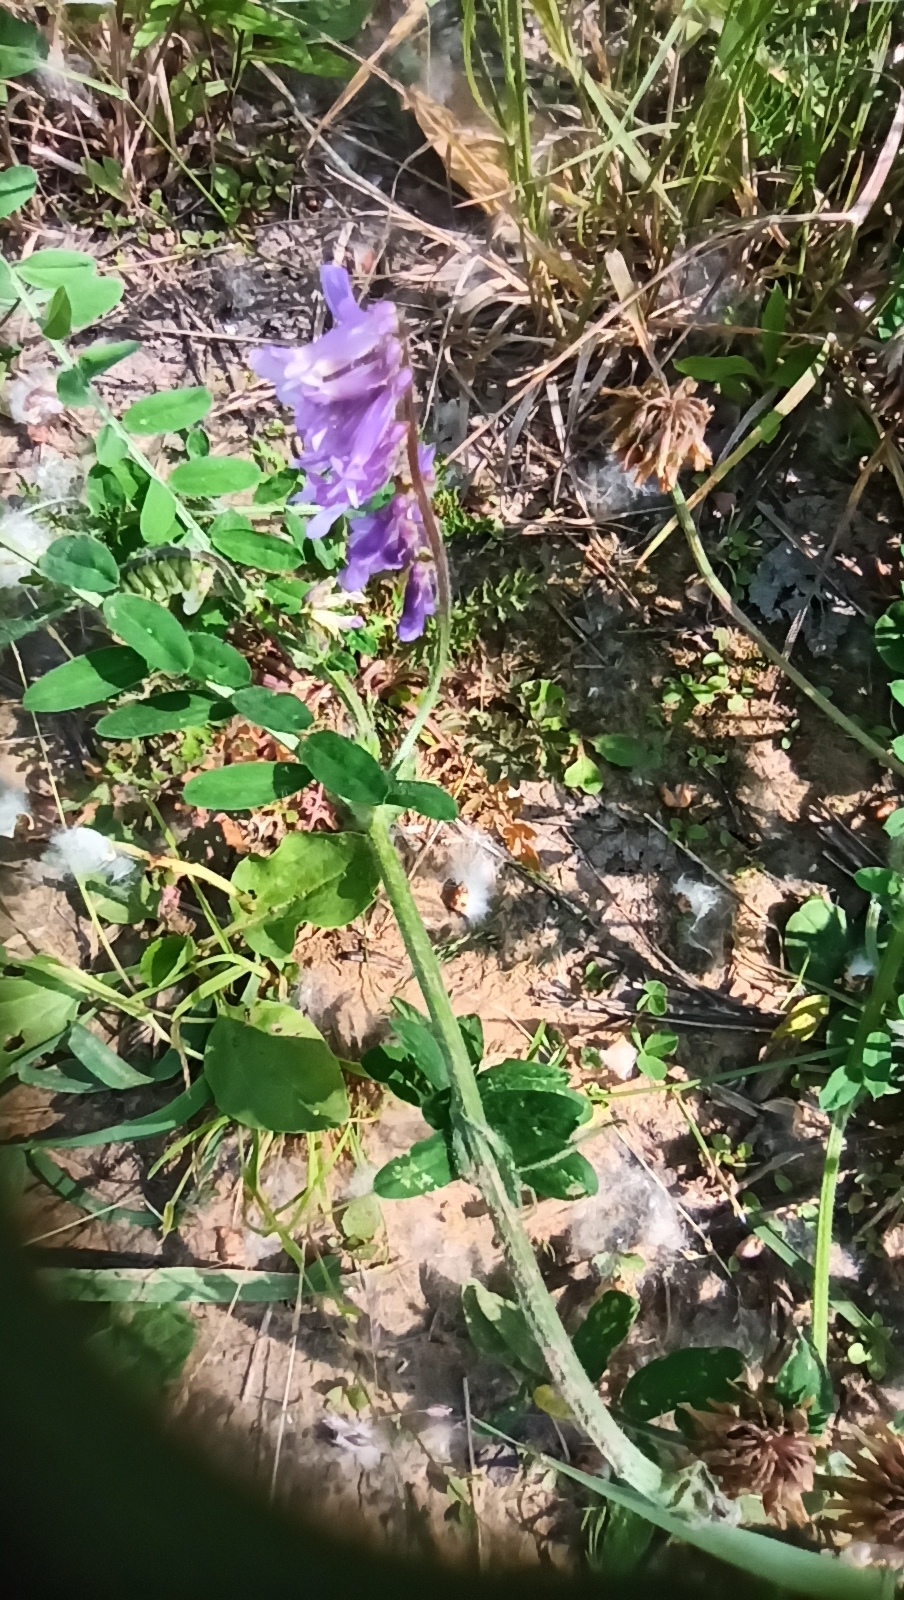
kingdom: Plantae
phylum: Tracheophyta
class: Magnoliopsida
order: Fabales
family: Fabaceae
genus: Vicia
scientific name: Vicia cracca
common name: Bird vetch
